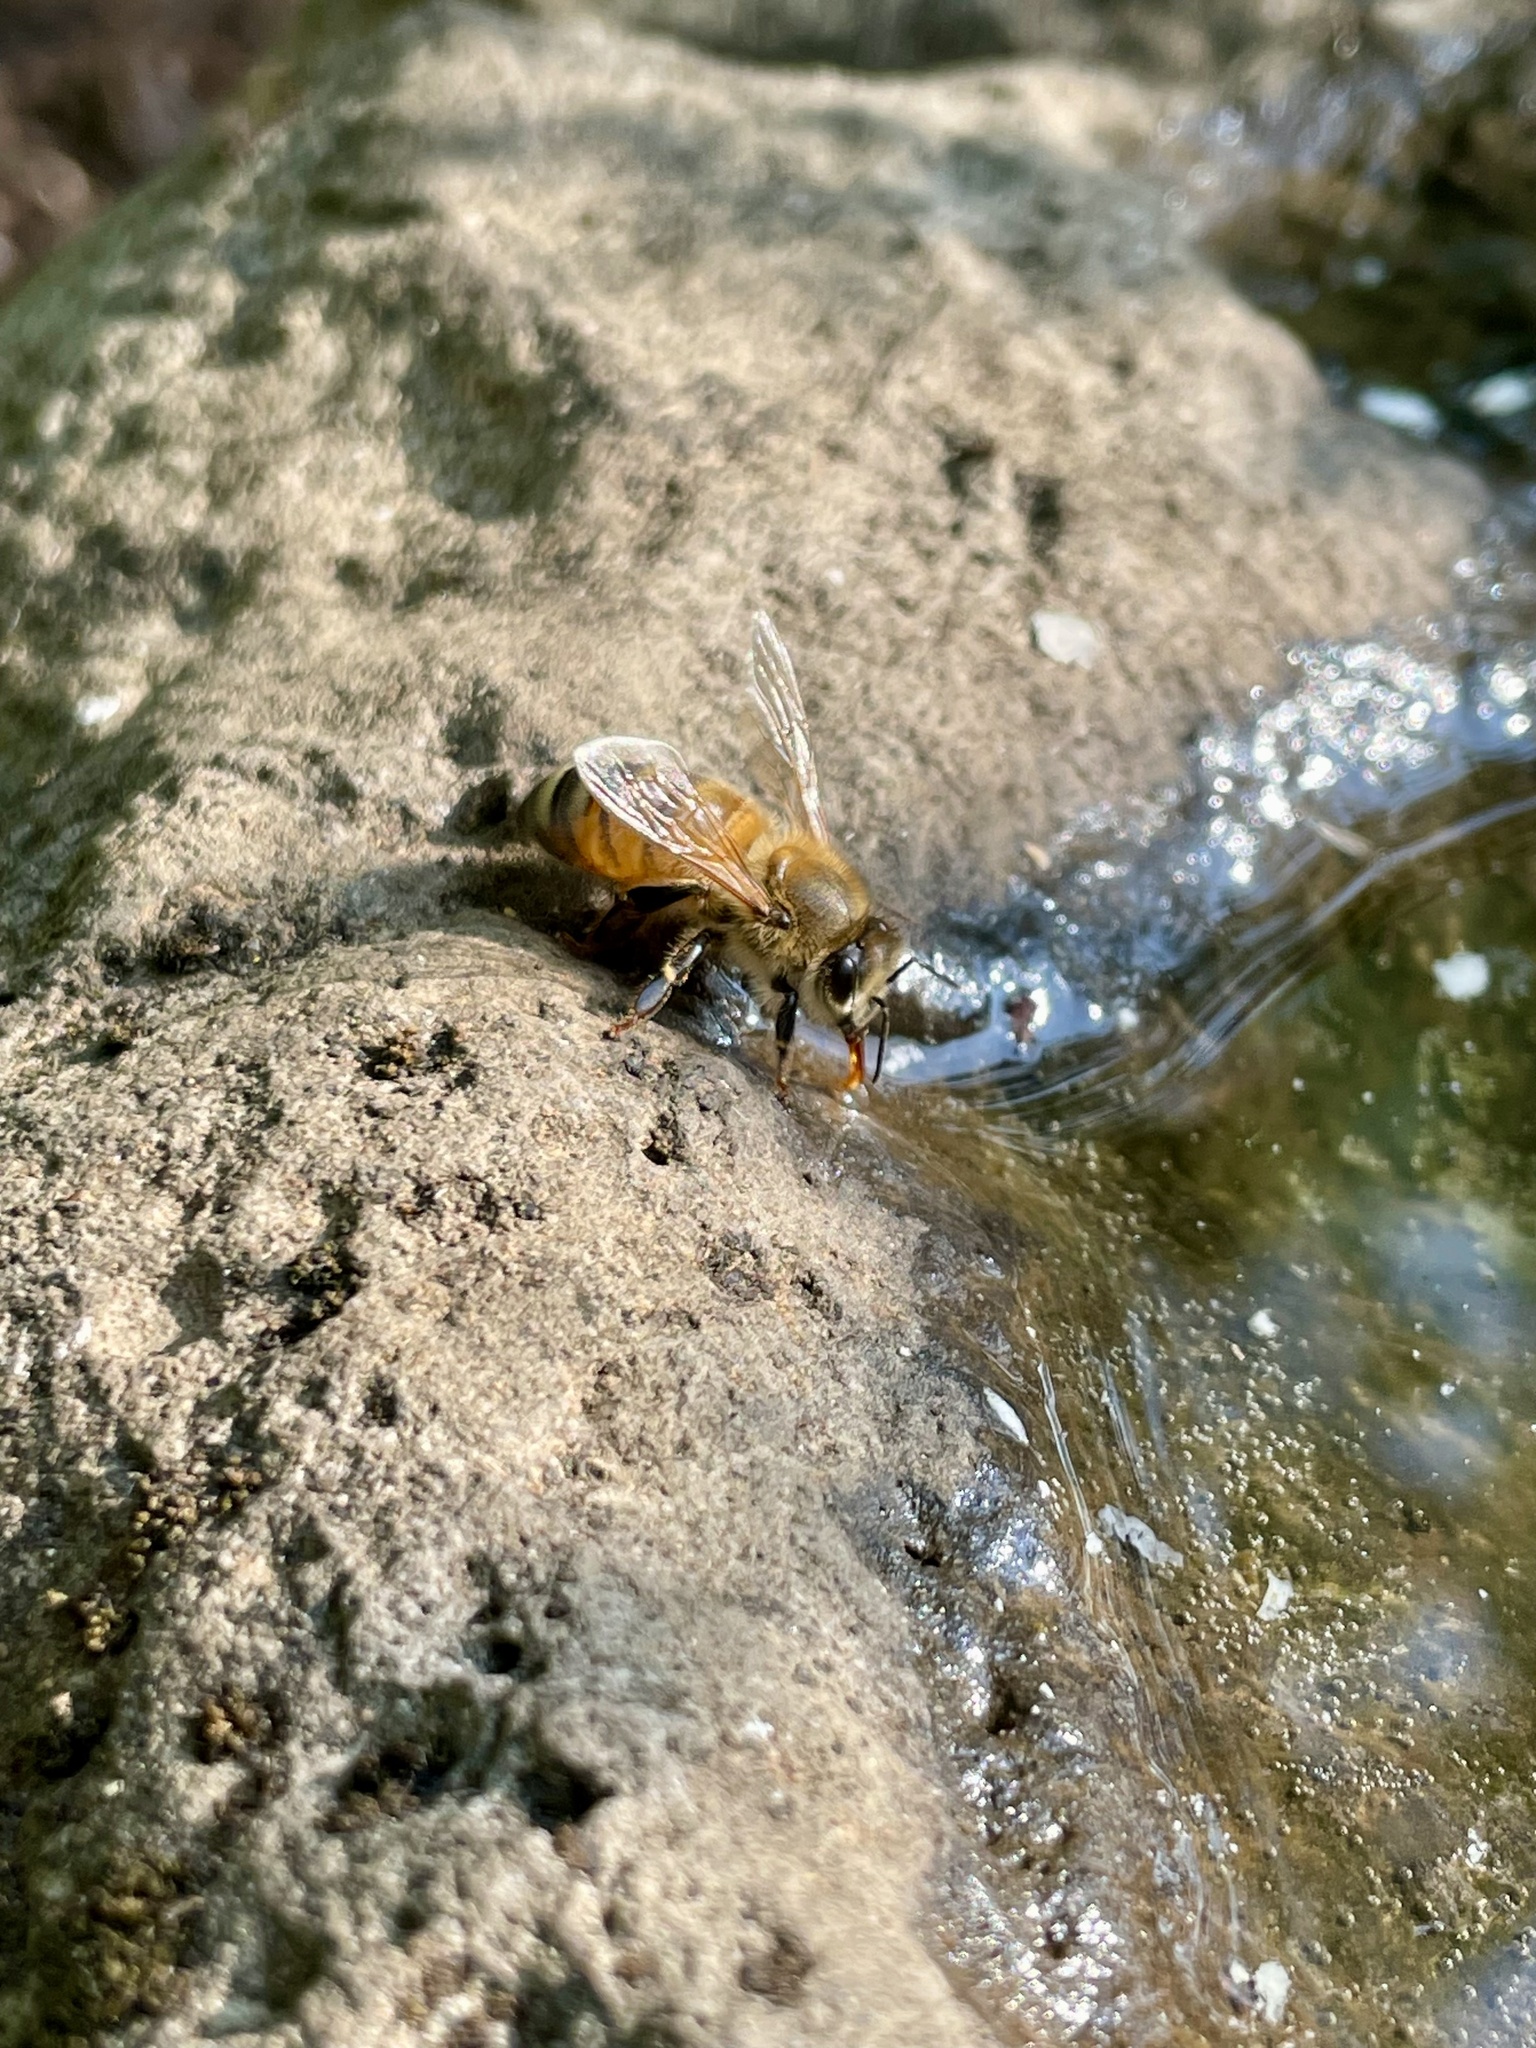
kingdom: Animalia
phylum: Arthropoda
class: Insecta
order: Hymenoptera
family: Apidae
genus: Apis
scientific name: Apis mellifera
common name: Honey bee
